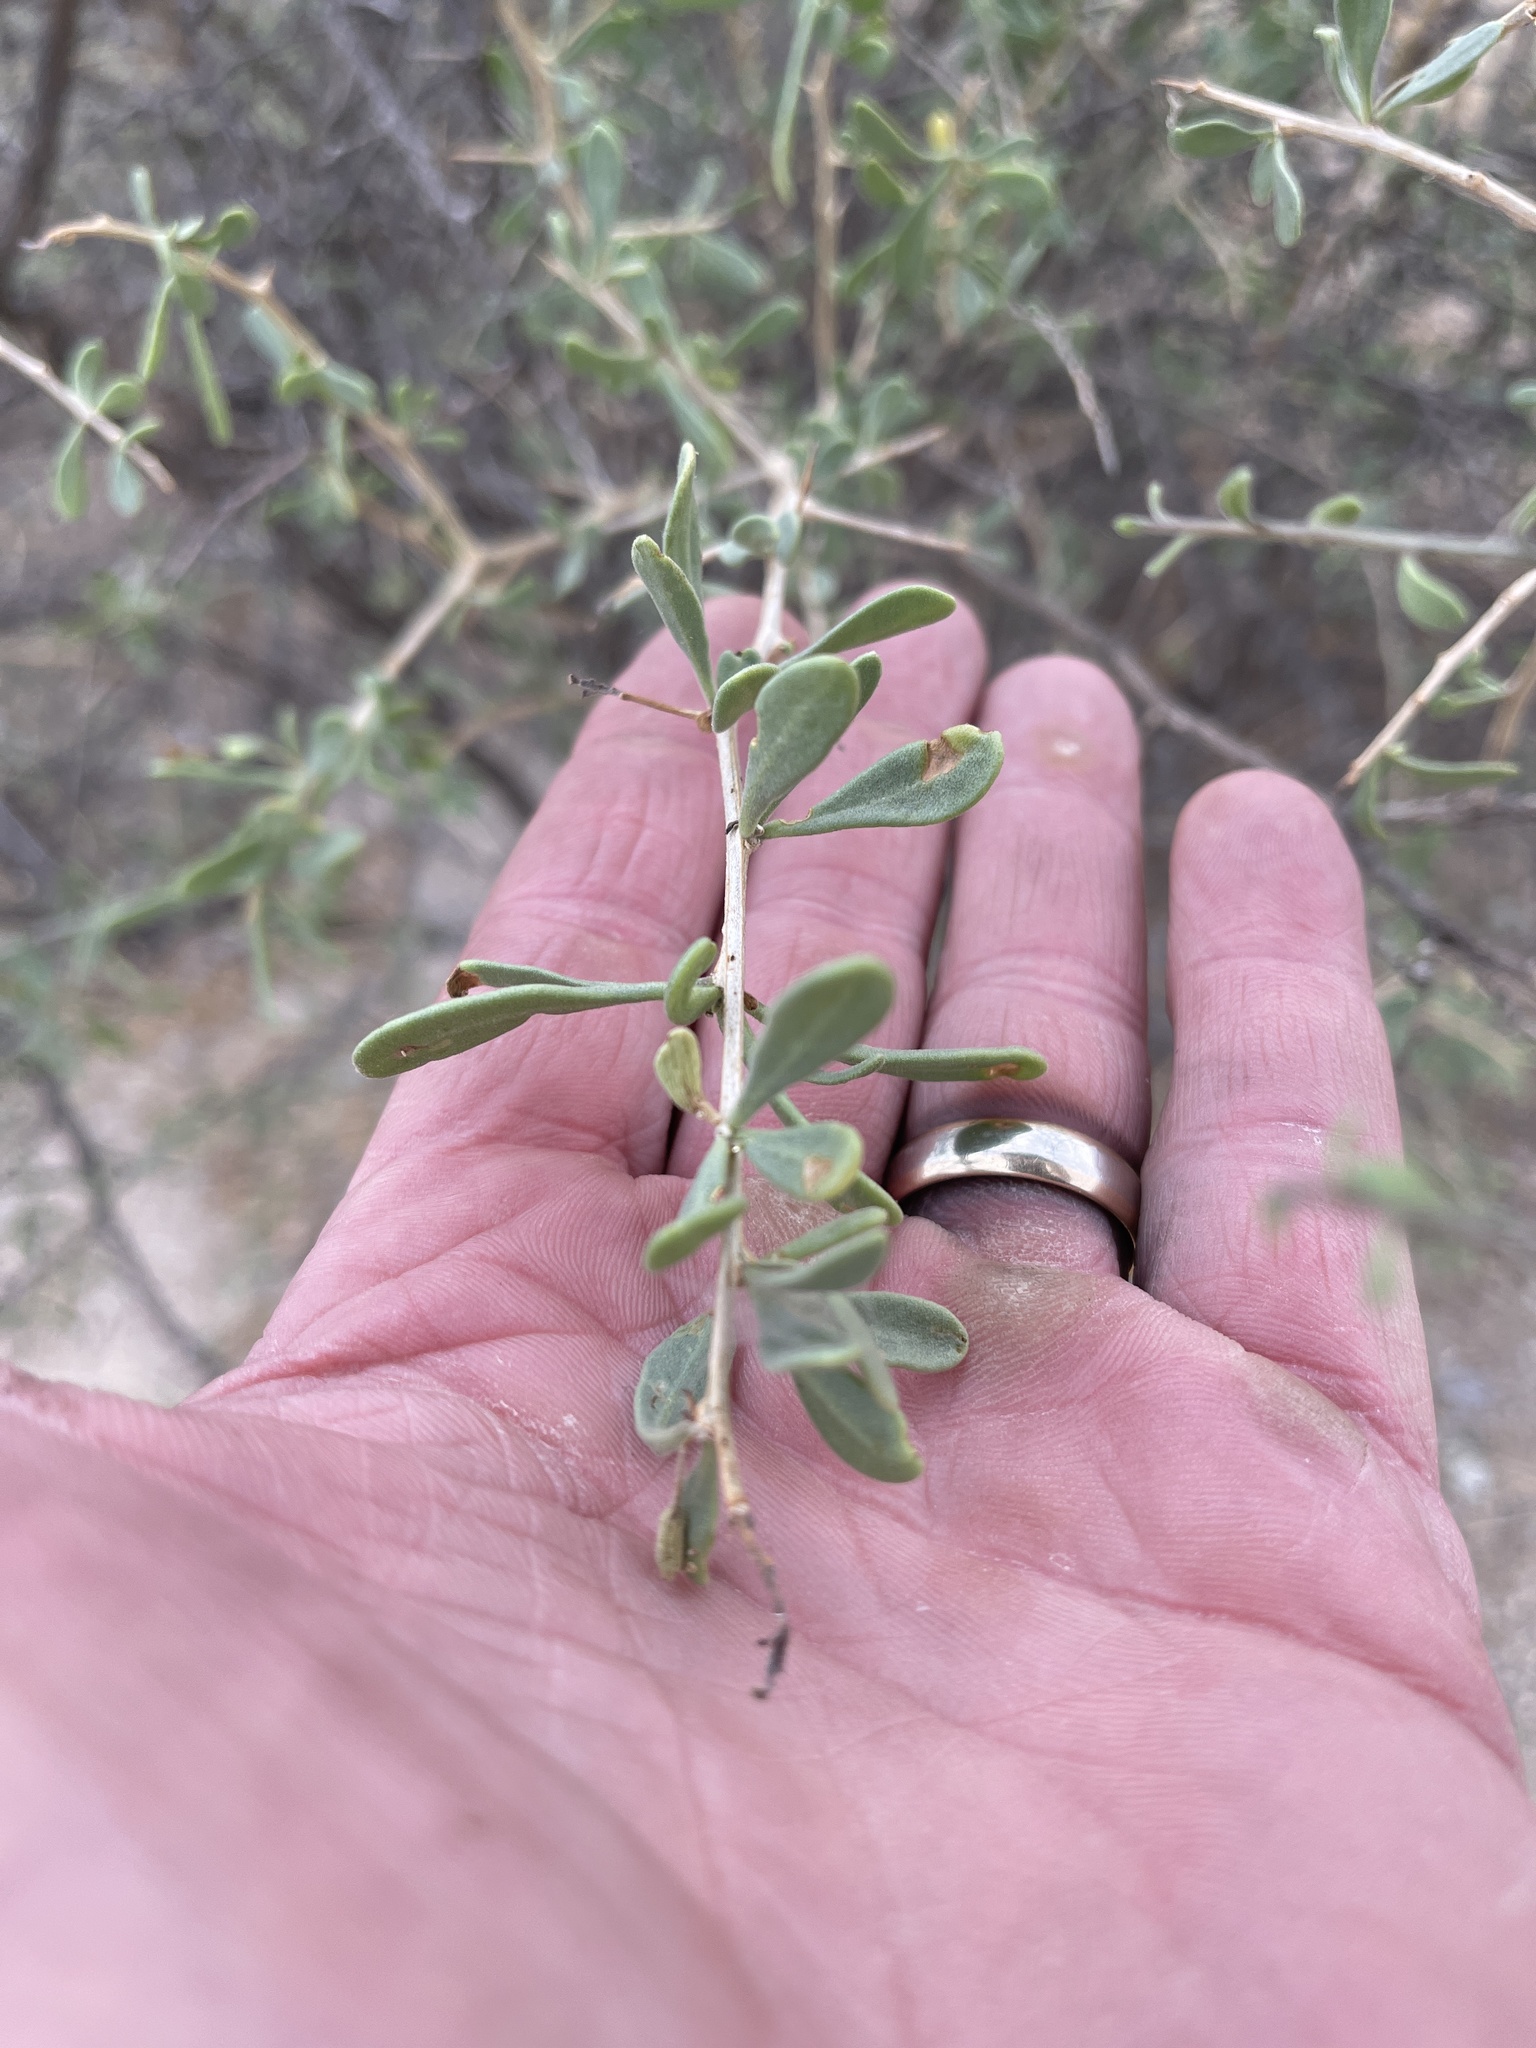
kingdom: Plantae
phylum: Tracheophyta
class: Magnoliopsida
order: Solanales
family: Solanaceae
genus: Lycium
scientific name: Lycium berlandieri
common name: Berlandier wolfberry
